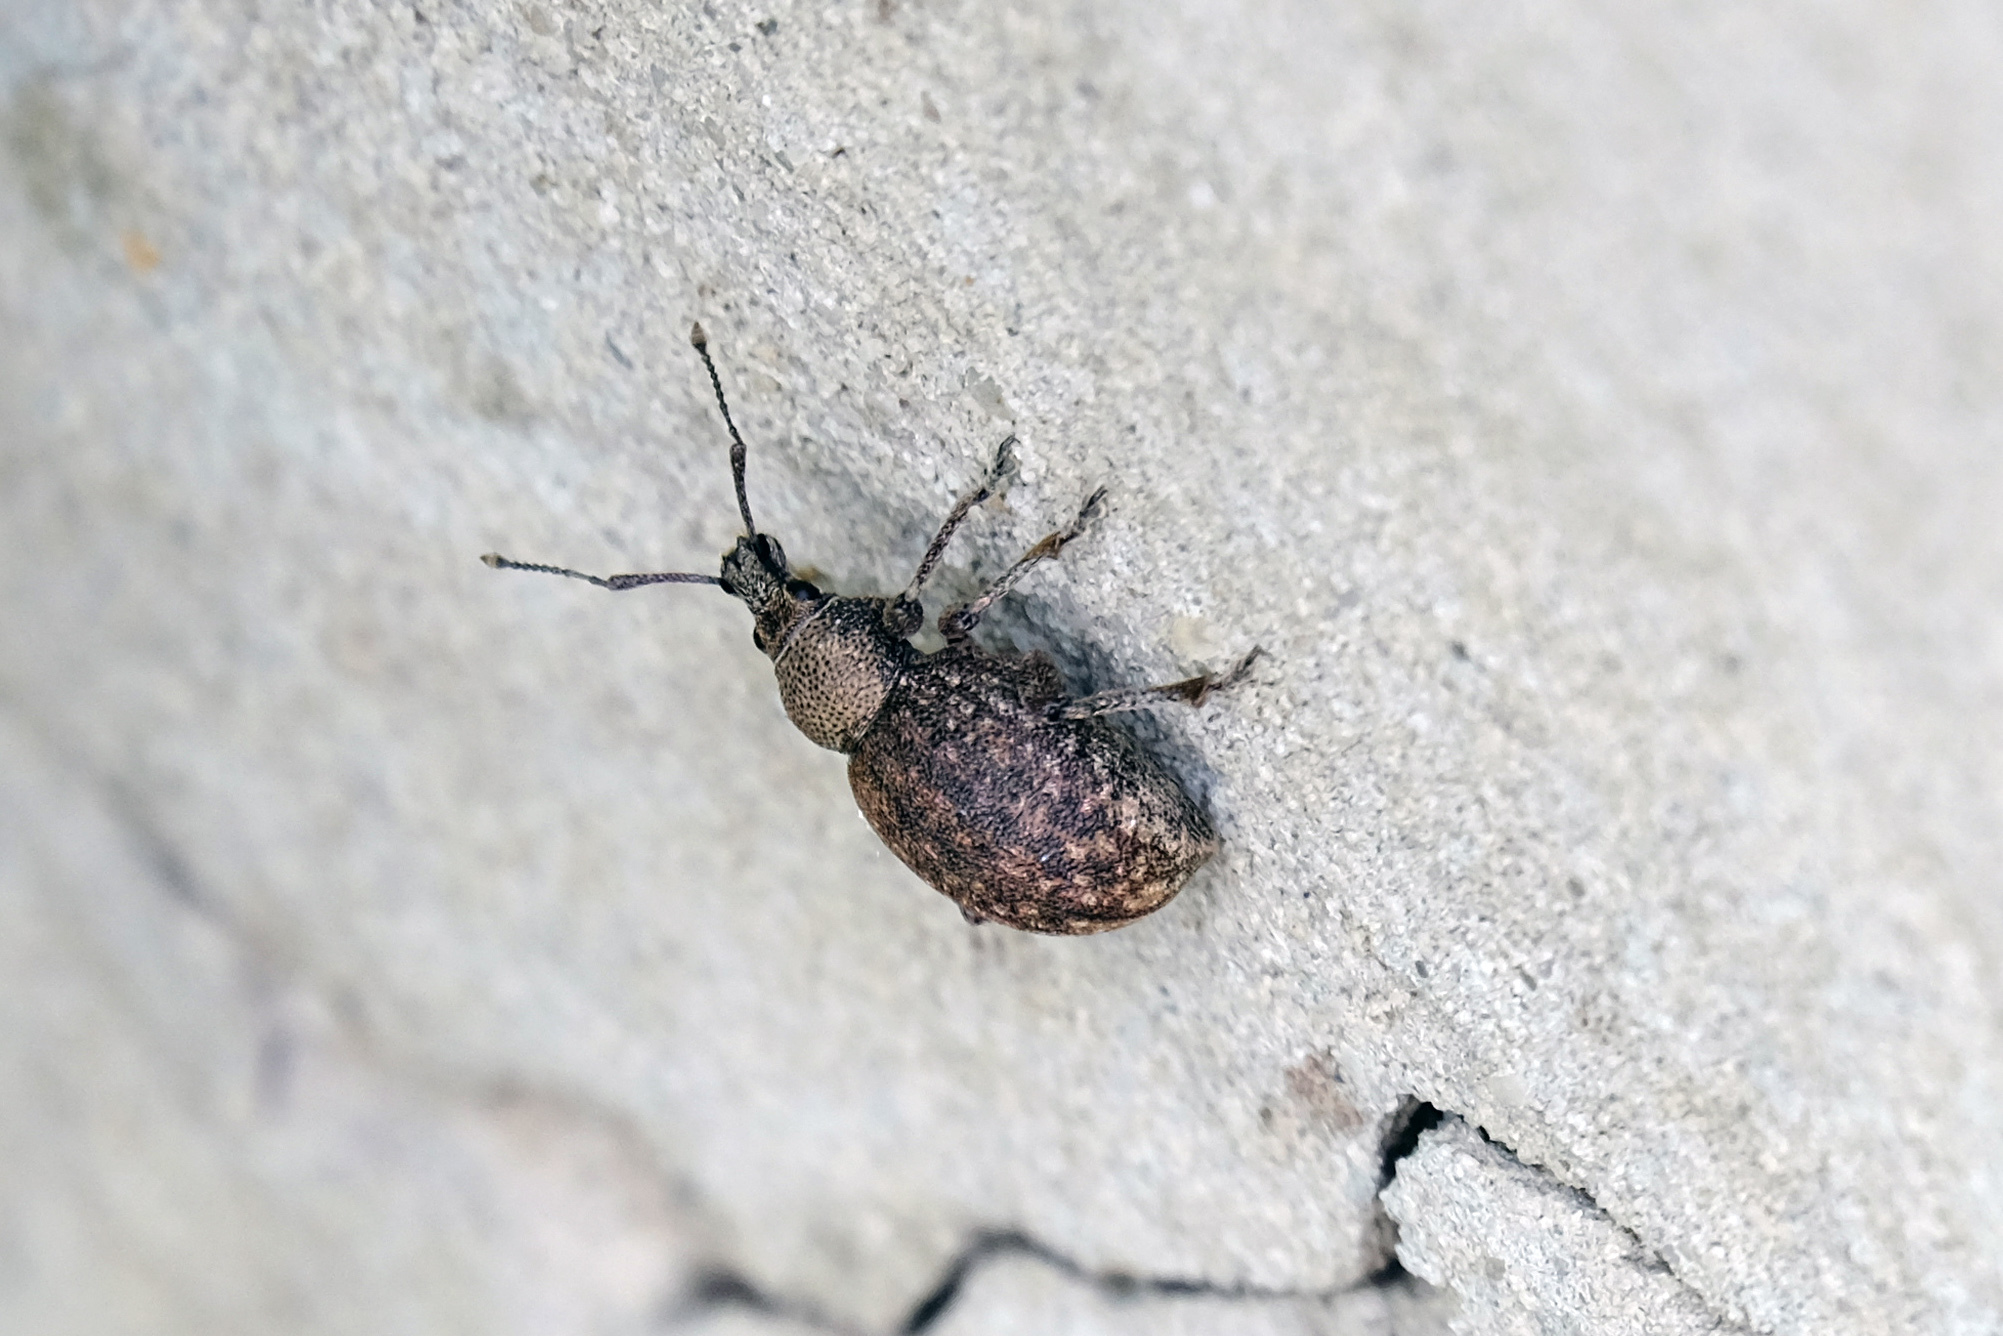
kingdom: Animalia
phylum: Arthropoda
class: Insecta
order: Coleoptera
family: Curculionidae
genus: Otiorhynchus
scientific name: Otiorhynchus ligustici
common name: Weevil
